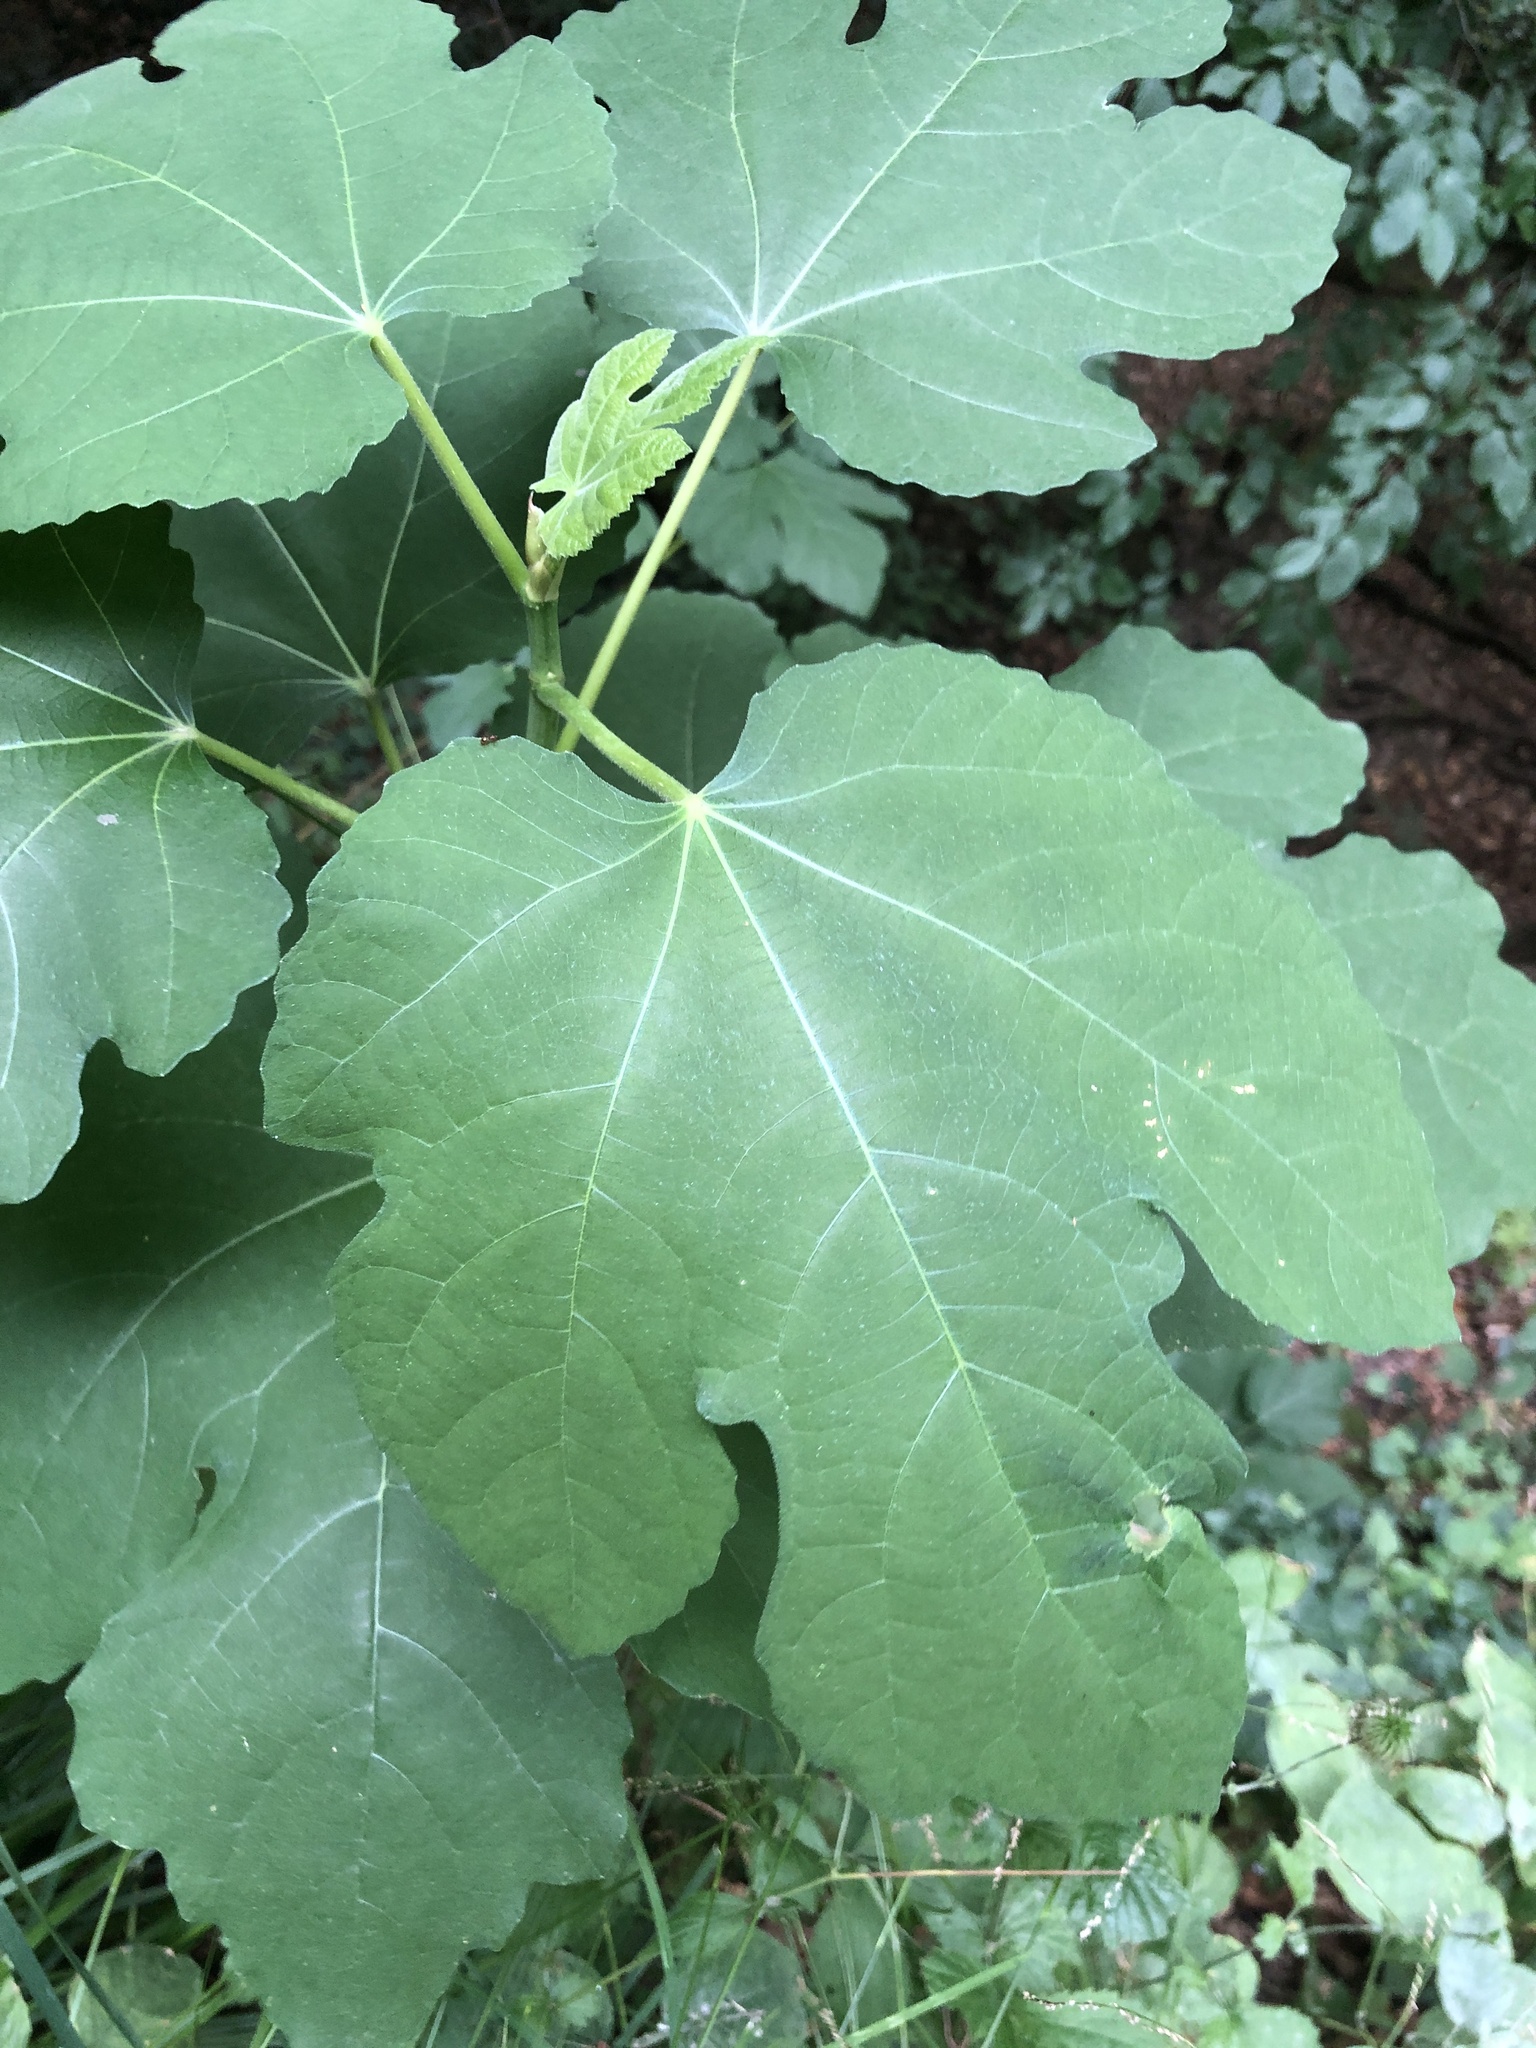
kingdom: Plantae
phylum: Tracheophyta
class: Magnoliopsida
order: Rosales
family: Moraceae
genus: Ficus
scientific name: Ficus carica
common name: Fig
